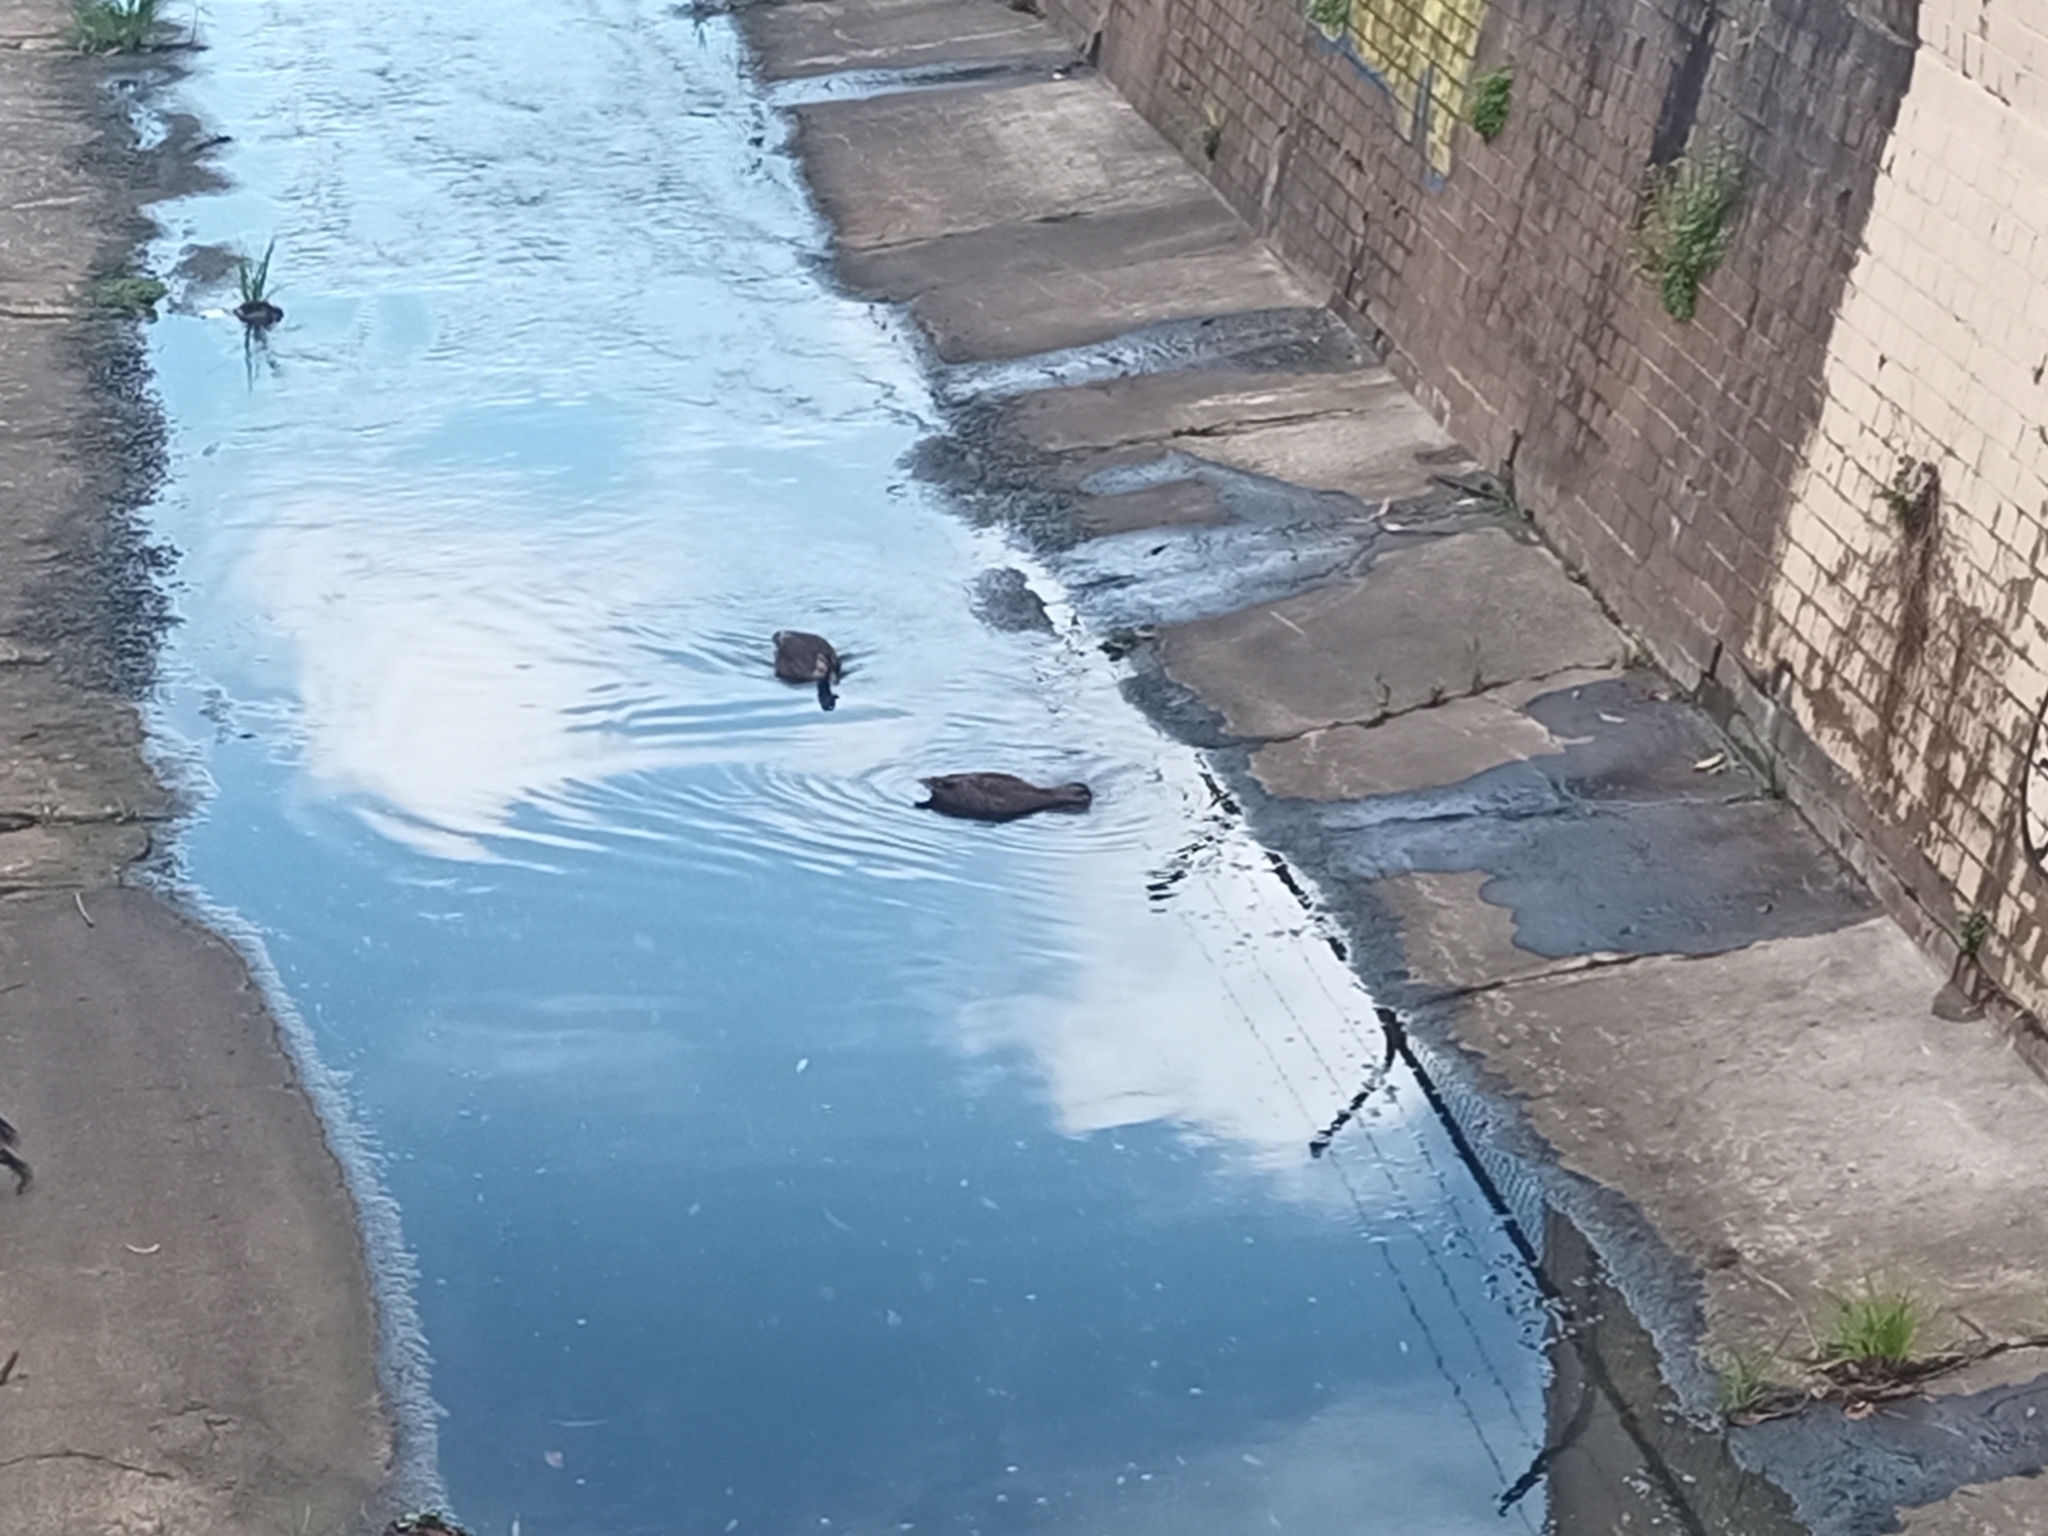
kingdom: Animalia
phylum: Chordata
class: Aves
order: Anseriformes
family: Anatidae
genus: Anas
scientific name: Anas superciliosa
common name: Pacific black duck
